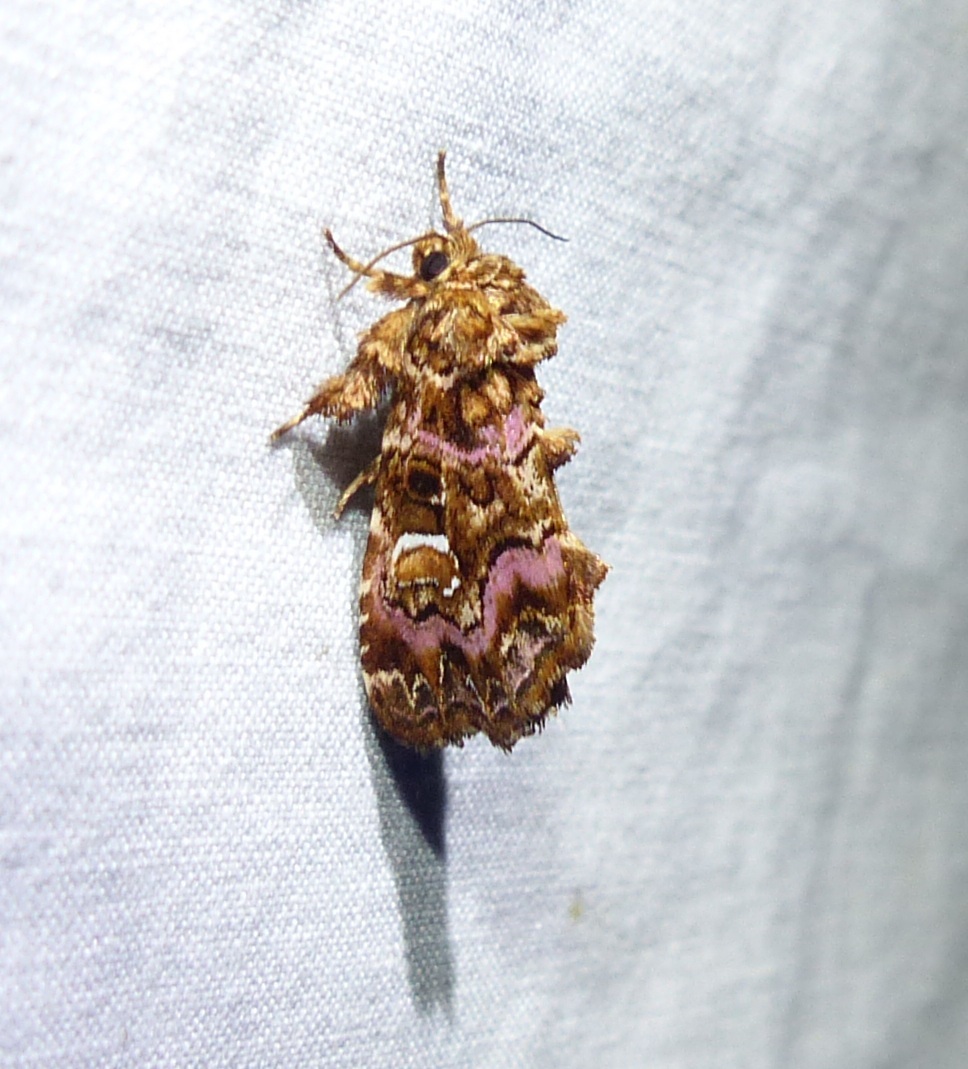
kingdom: Animalia
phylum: Arthropoda
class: Insecta
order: Lepidoptera
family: Noctuidae
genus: Callopistria
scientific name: Callopistria mollissima
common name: Pink-shaded fern moth
